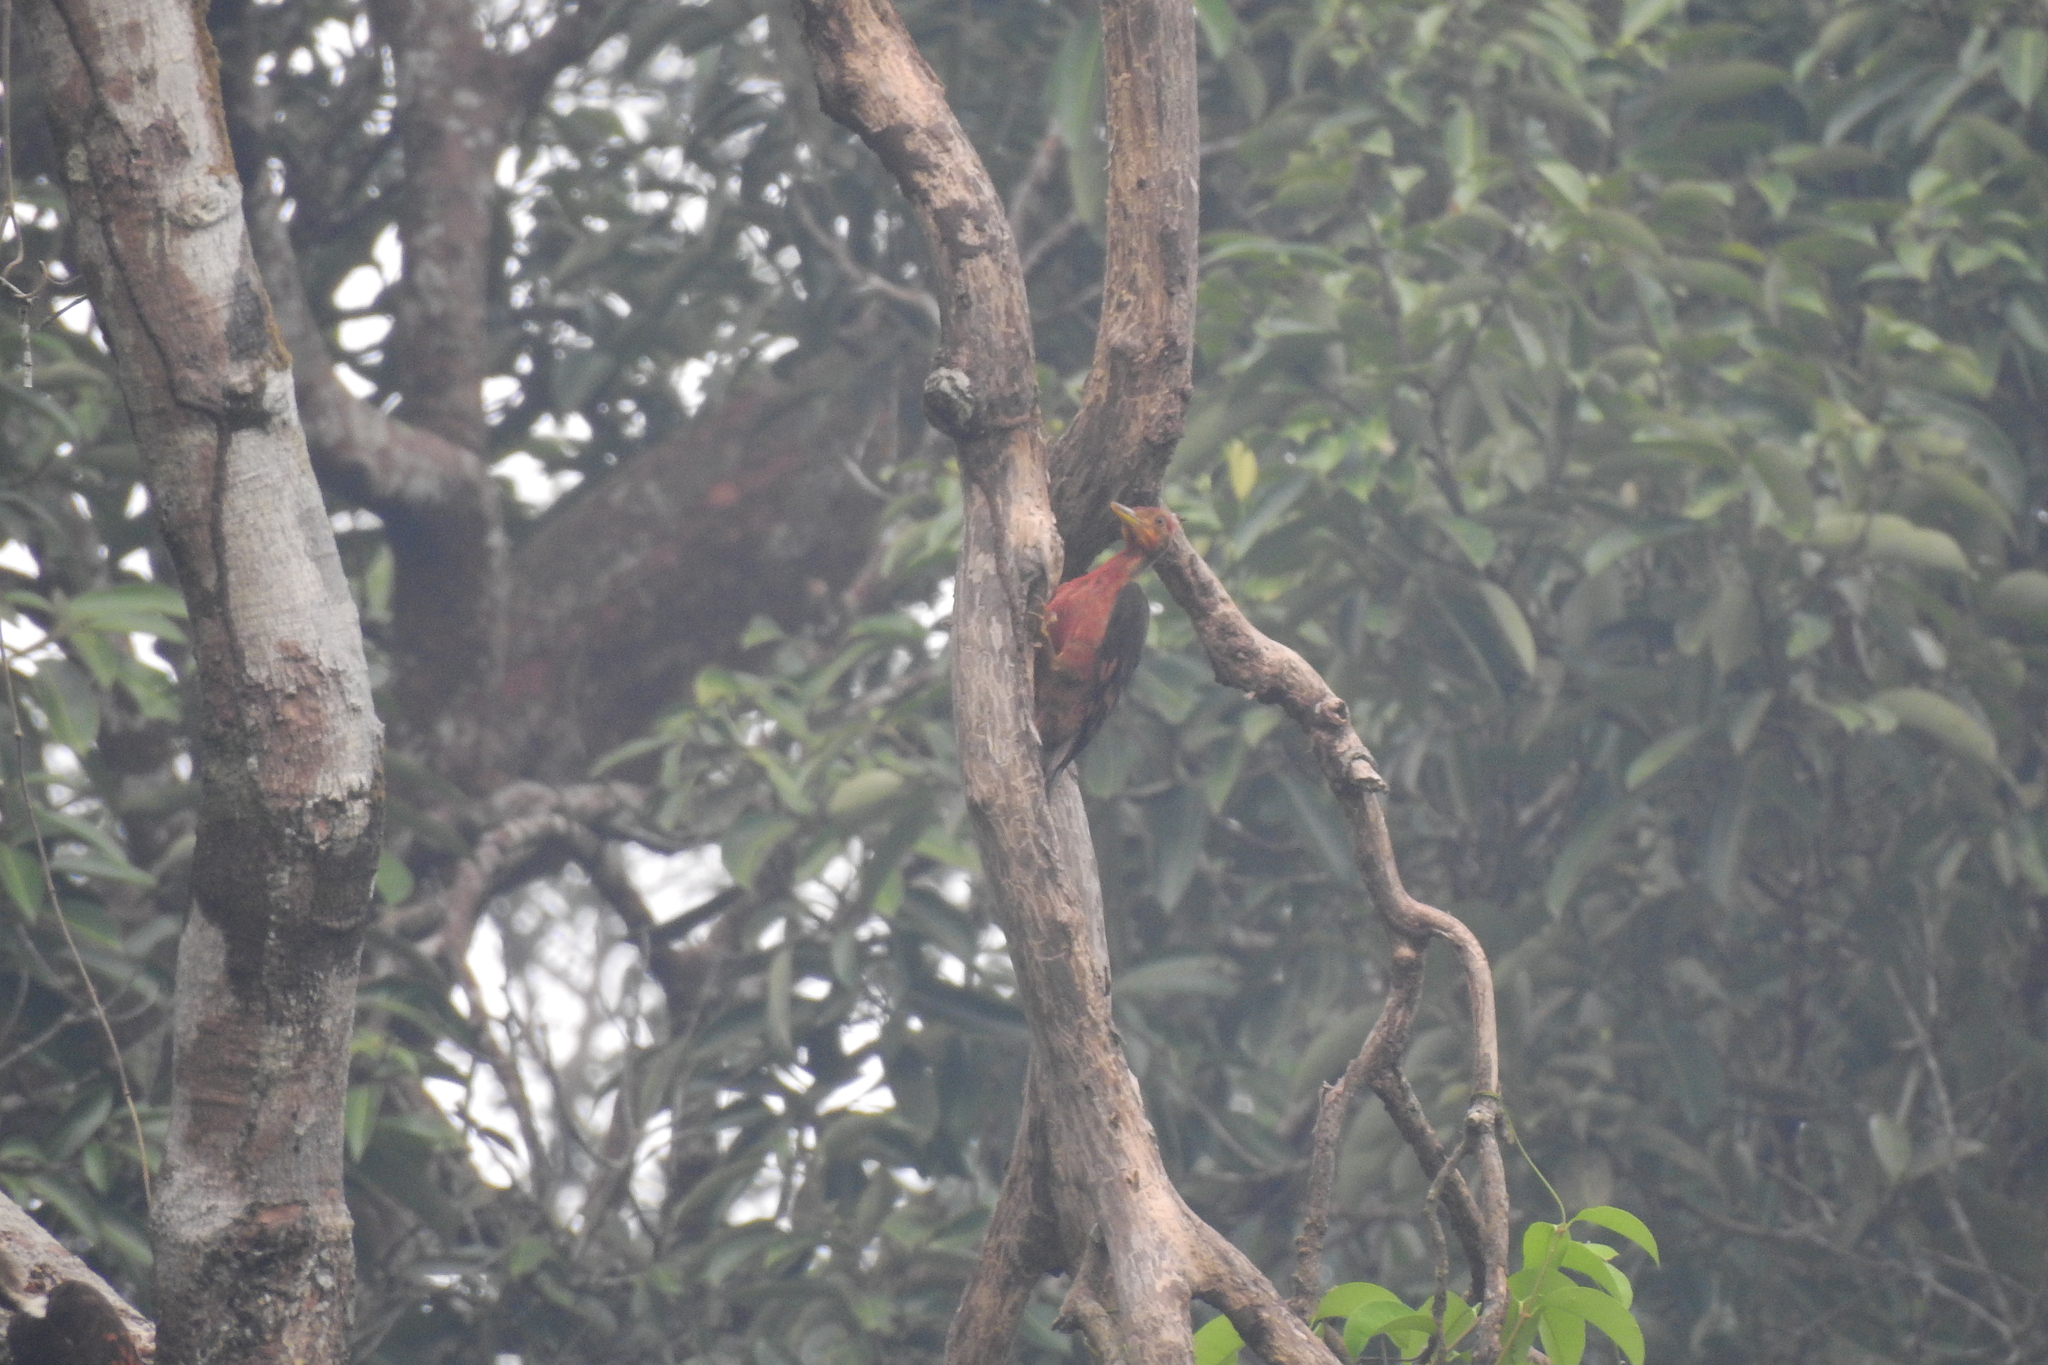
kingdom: Animalia
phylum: Chordata
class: Aves
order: Piciformes
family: Picidae
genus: Reinwardtipicus
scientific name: Reinwardtipicus validus
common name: Orange-backed woodpecker
